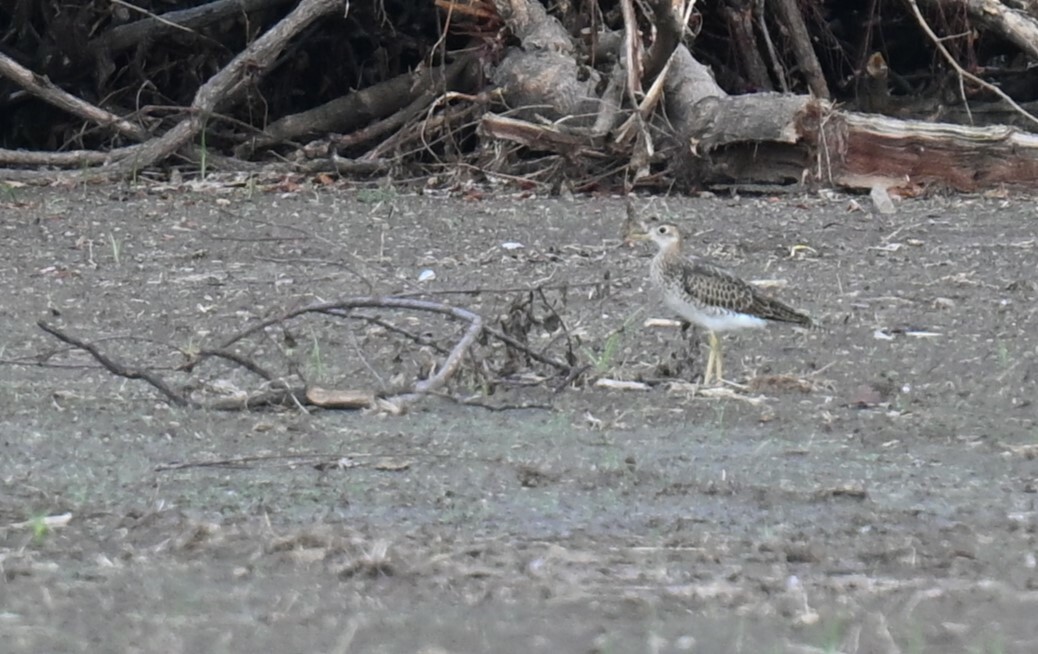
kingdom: Animalia
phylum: Chordata
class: Aves
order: Charadriiformes
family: Scolopacidae
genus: Bartramia
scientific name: Bartramia longicauda
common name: Upland sandpiper
